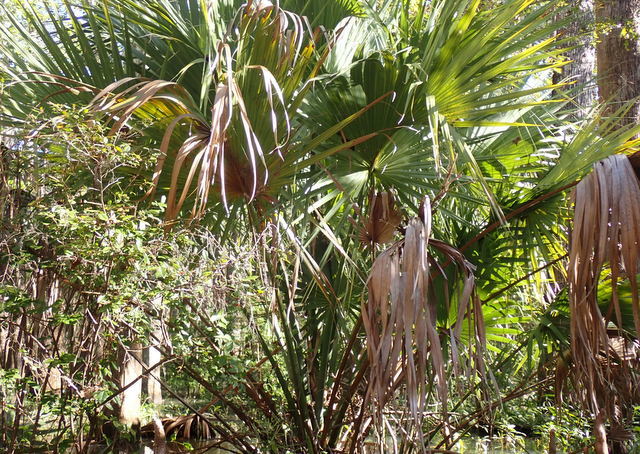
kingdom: Plantae
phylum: Tracheophyta
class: Liliopsida
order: Arecales
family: Arecaceae
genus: Sabal
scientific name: Sabal palmetto
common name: Blue palmetto
